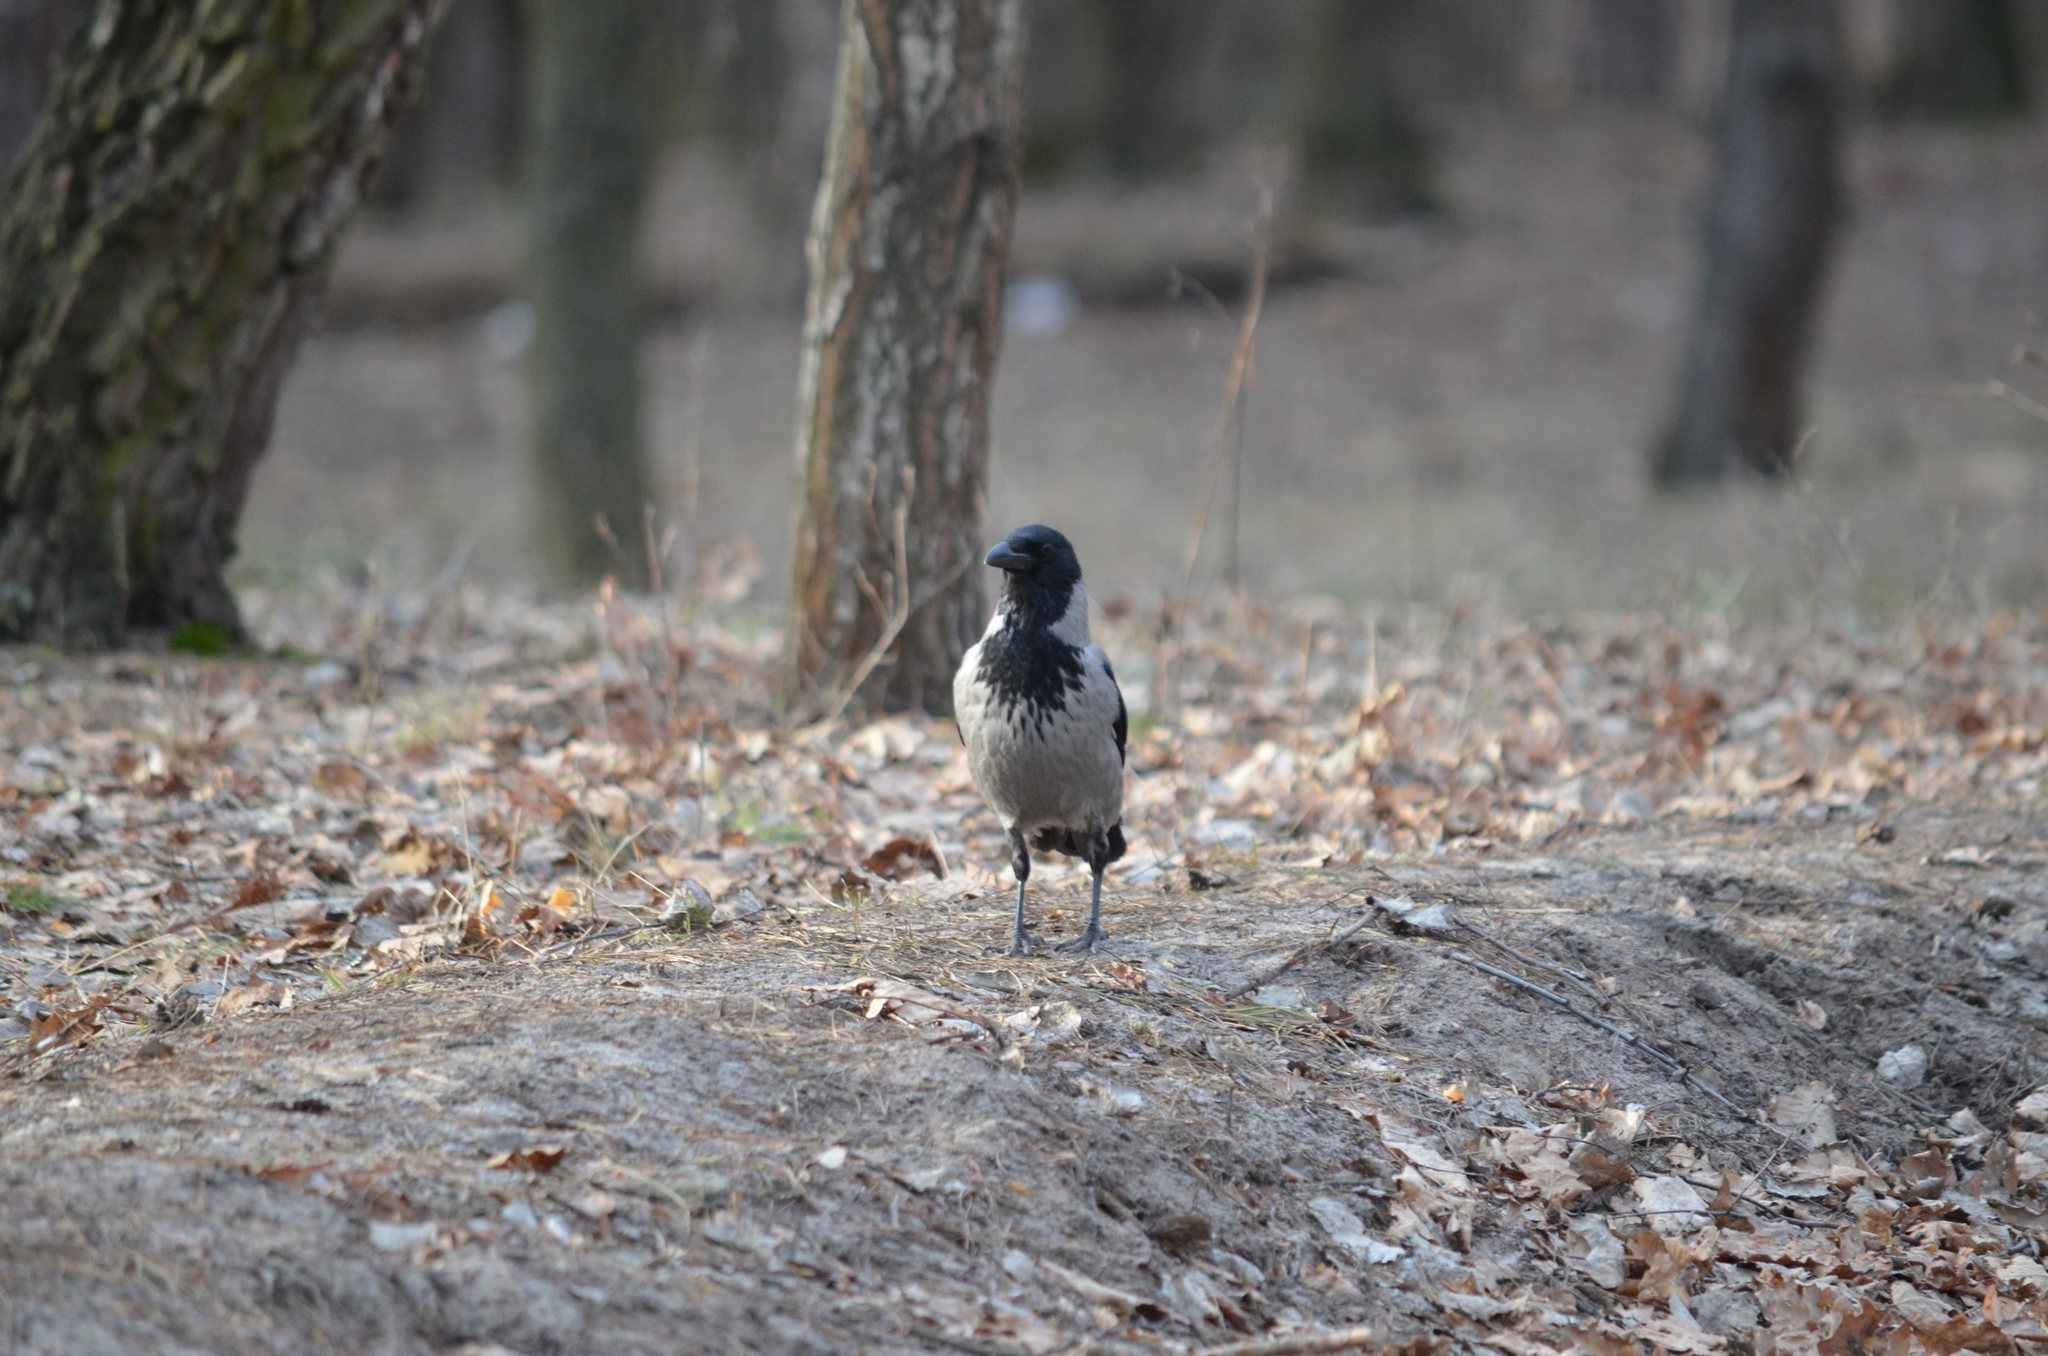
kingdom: Animalia
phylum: Chordata
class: Aves
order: Passeriformes
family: Corvidae
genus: Corvus
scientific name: Corvus cornix
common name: Hooded crow
